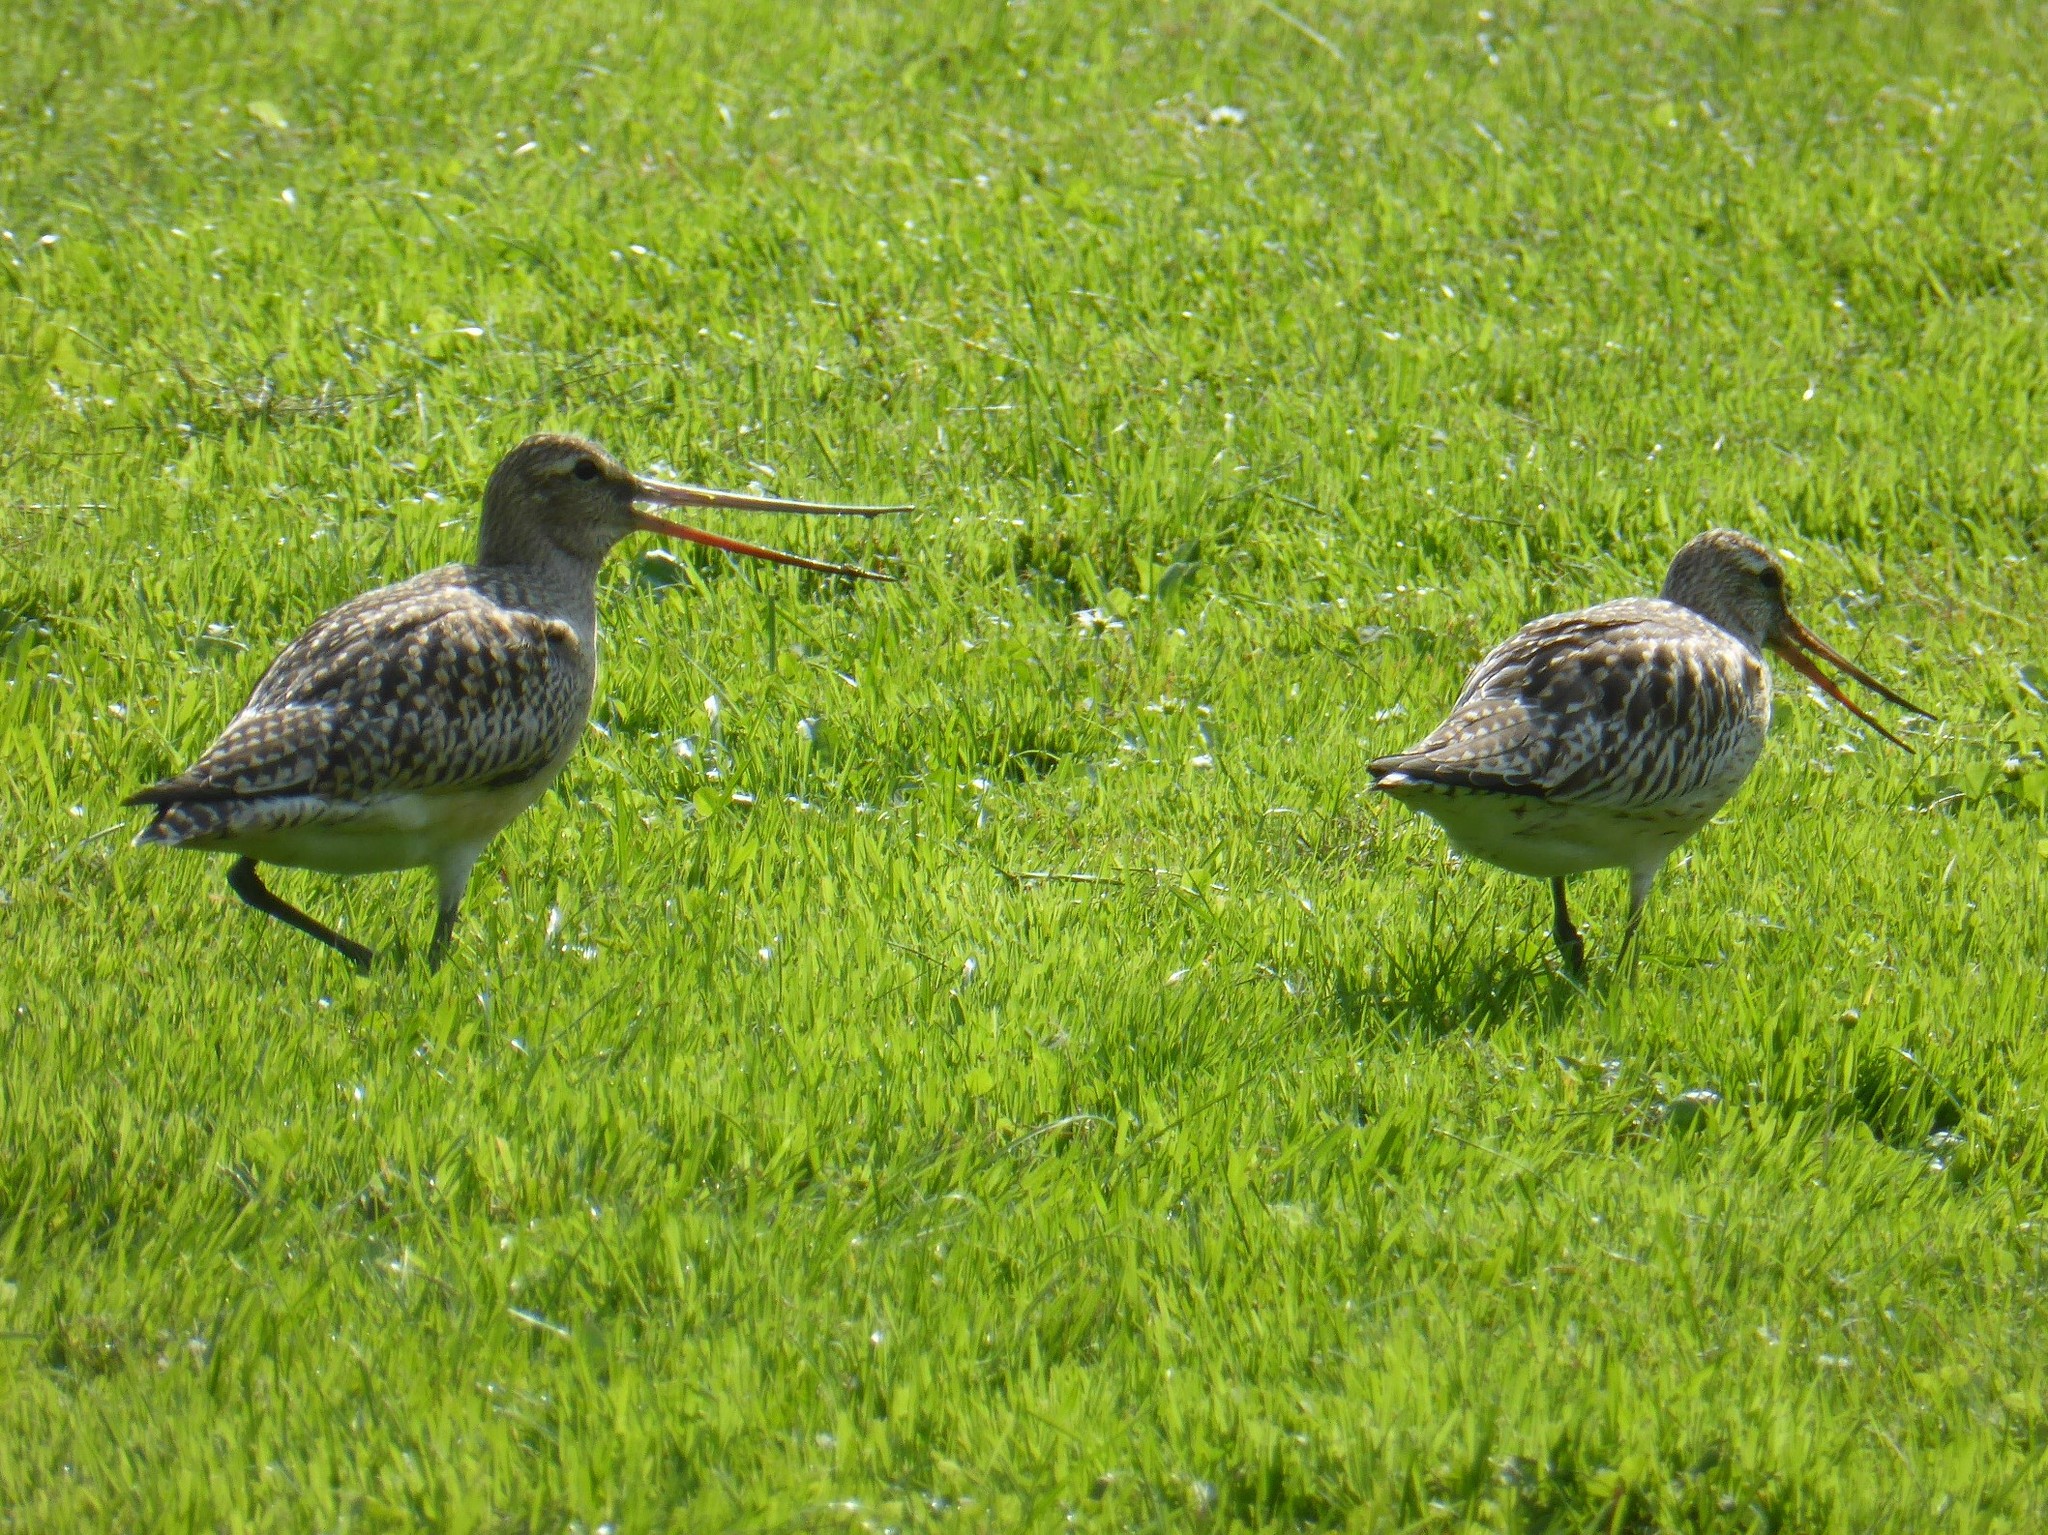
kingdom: Animalia
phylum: Chordata
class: Aves
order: Charadriiformes
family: Scolopacidae
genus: Limosa
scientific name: Limosa lapponica
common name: Bar-tailed godwit
